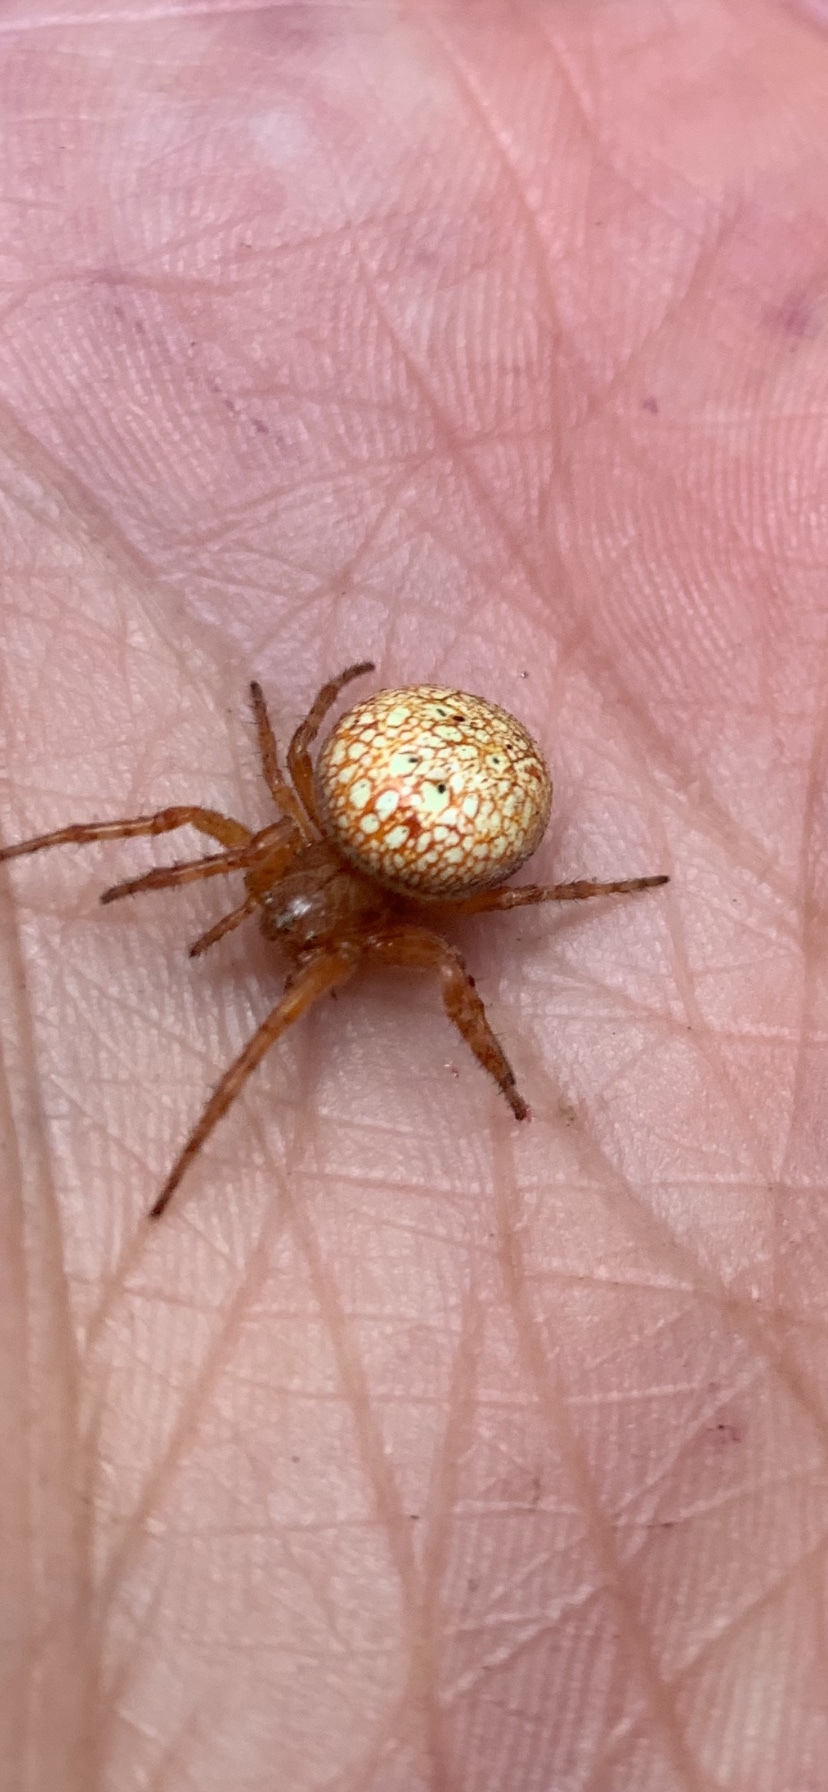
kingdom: Animalia
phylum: Arthropoda
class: Arachnida
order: Araneae
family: Araneidae
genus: Araneus
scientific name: Araneus alsine
